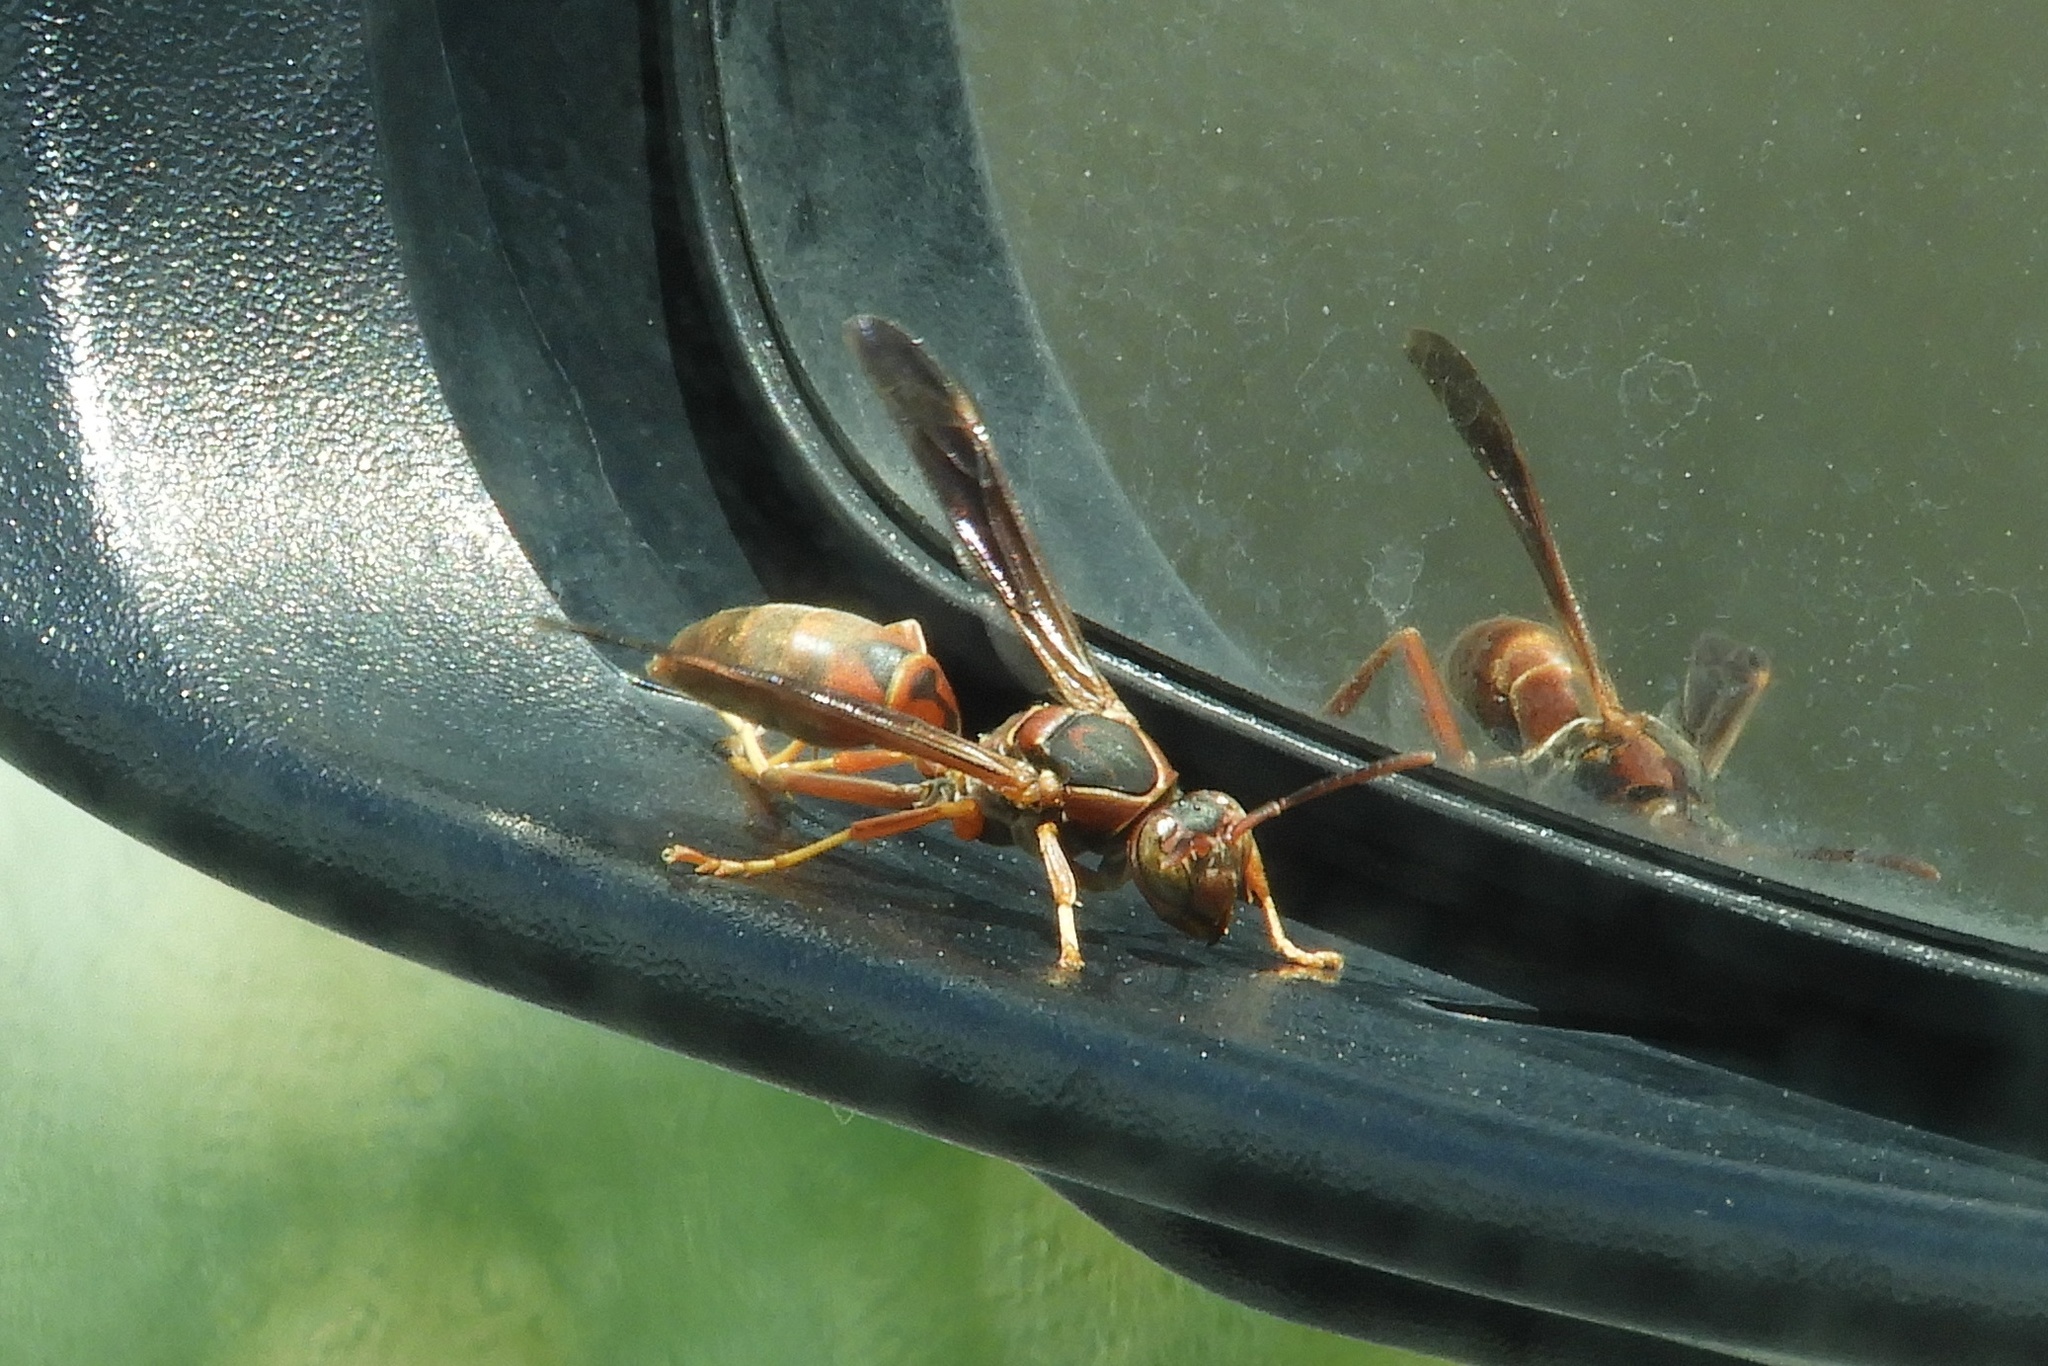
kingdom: Animalia
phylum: Arthropoda
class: Insecta
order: Hymenoptera
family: Eumenidae
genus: Polistes
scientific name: Polistes fuscatus
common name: Dark paper wasp
